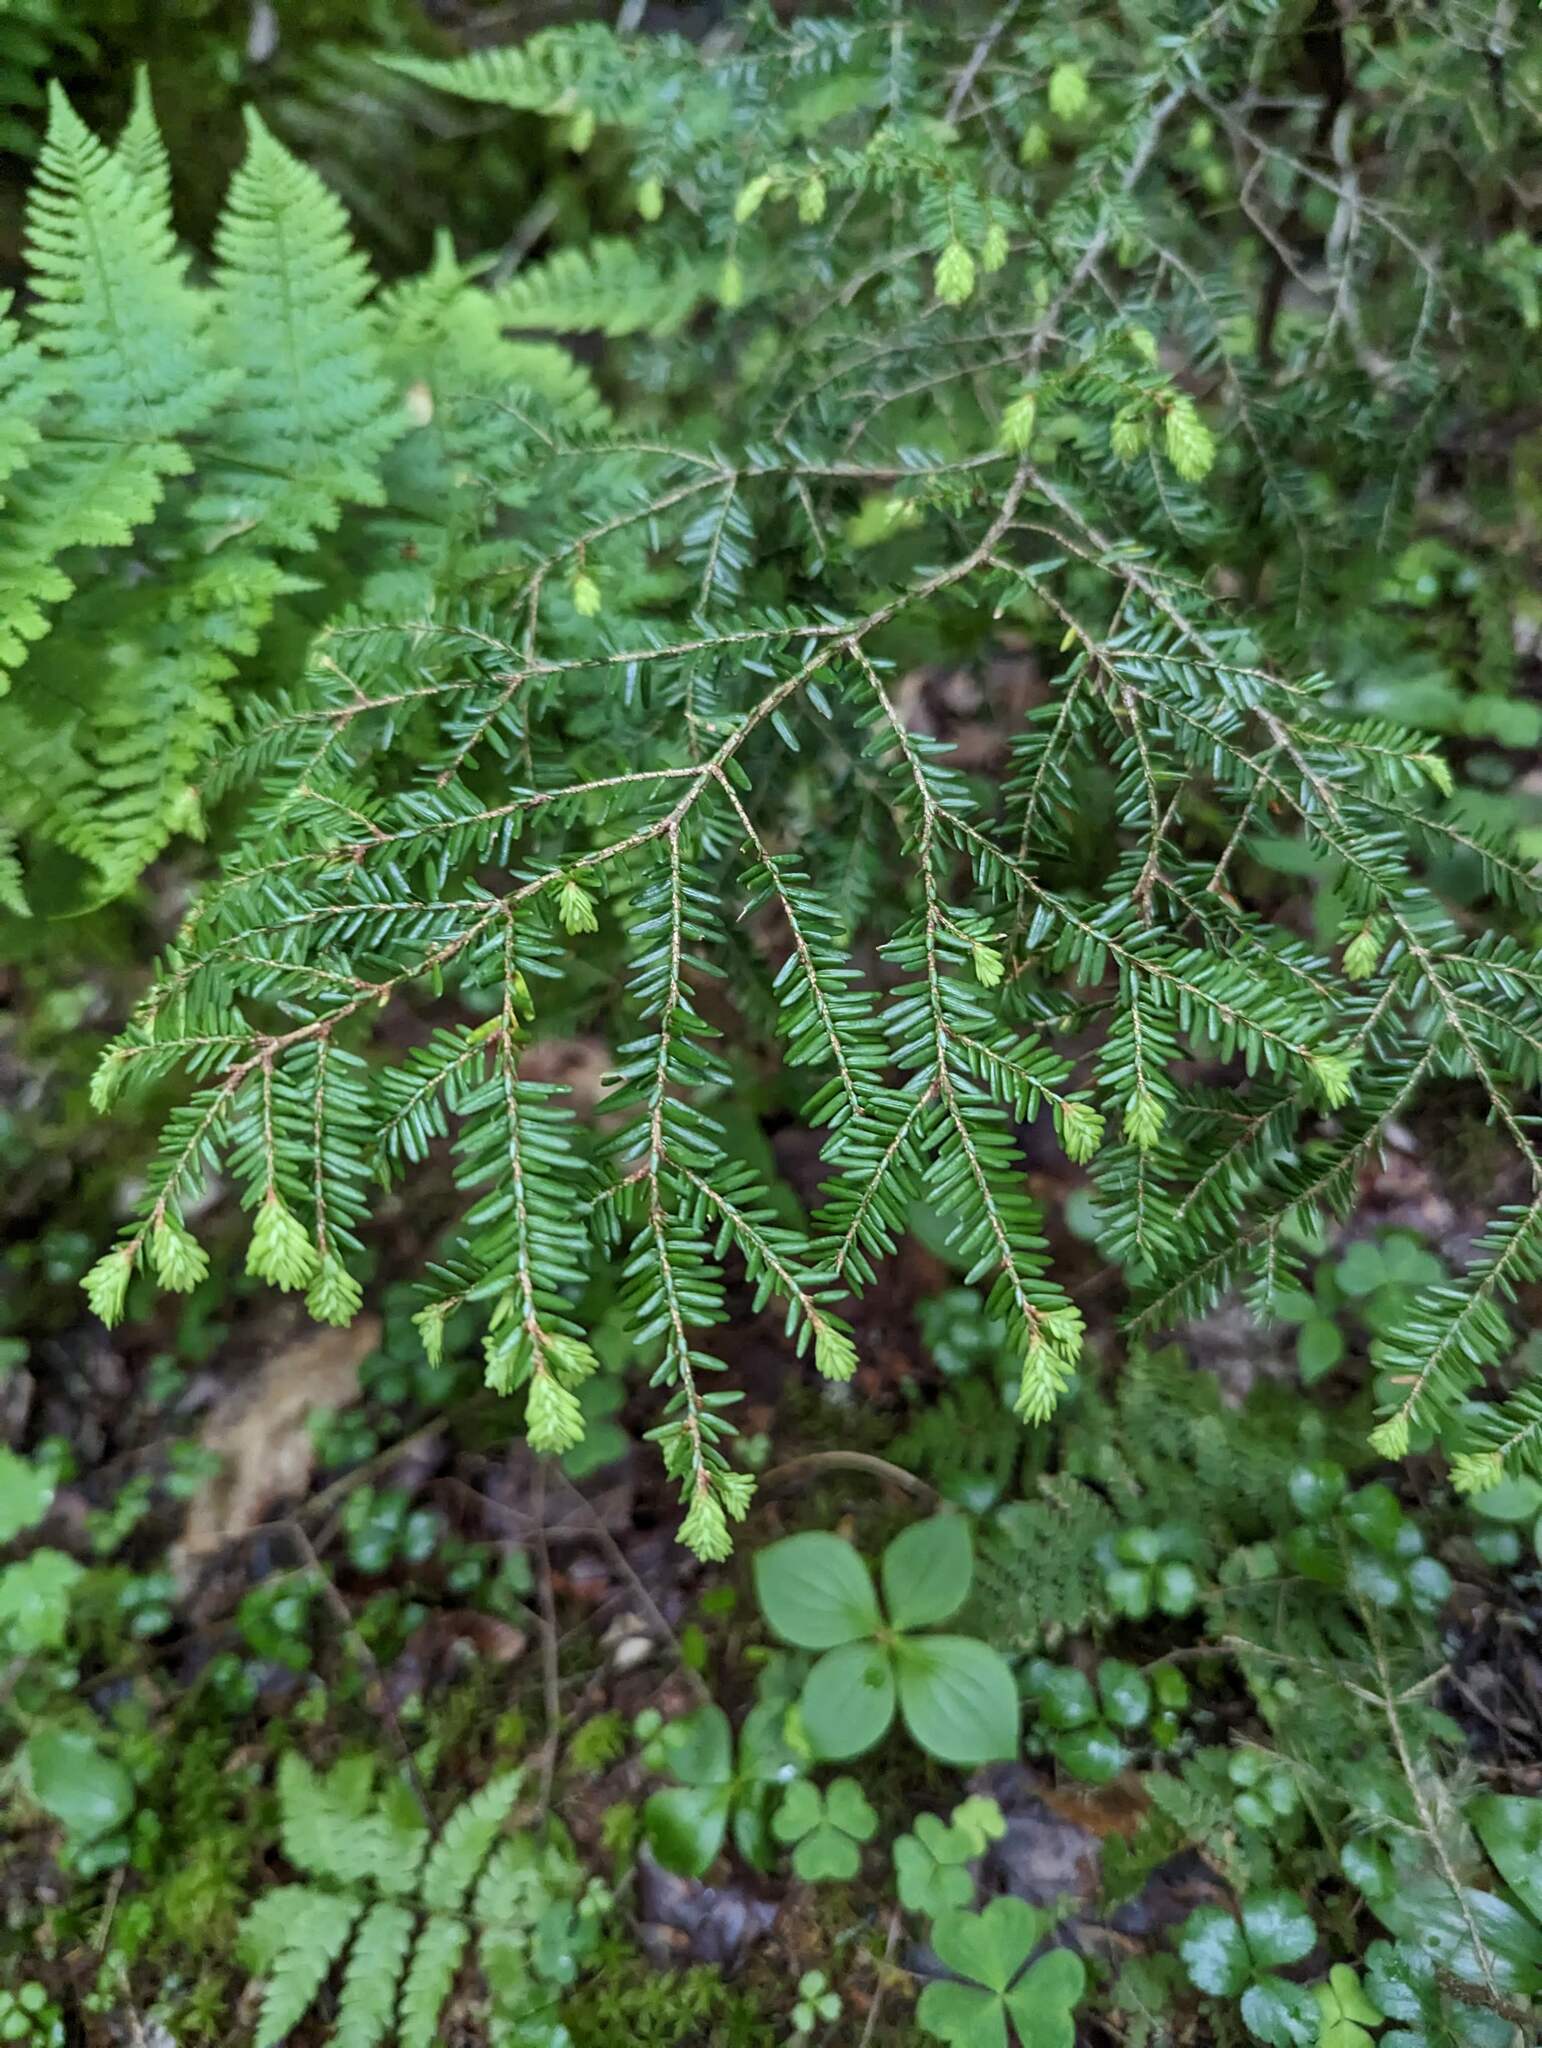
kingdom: Plantae
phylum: Tracheophyta
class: Pinopsida
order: Pinales
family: Pinaceae
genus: Tsuga
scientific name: Tsuga canadensis
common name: Eastern hemlock
